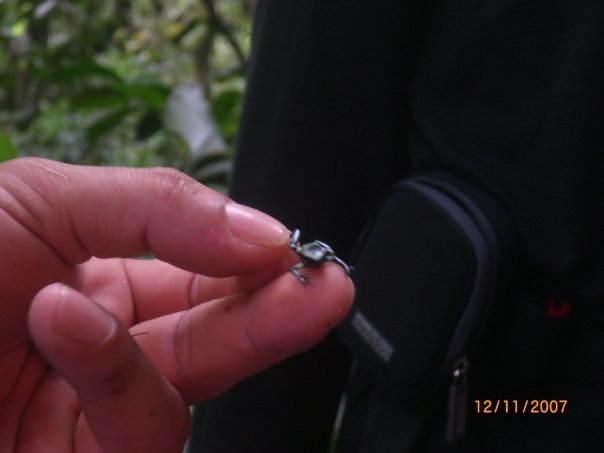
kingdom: Animalia
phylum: Chordata
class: Amphibia
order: Anura
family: Dendrobatidae
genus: Dendrobates
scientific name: Dendrobates auratus
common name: Green and black poison dart frog
